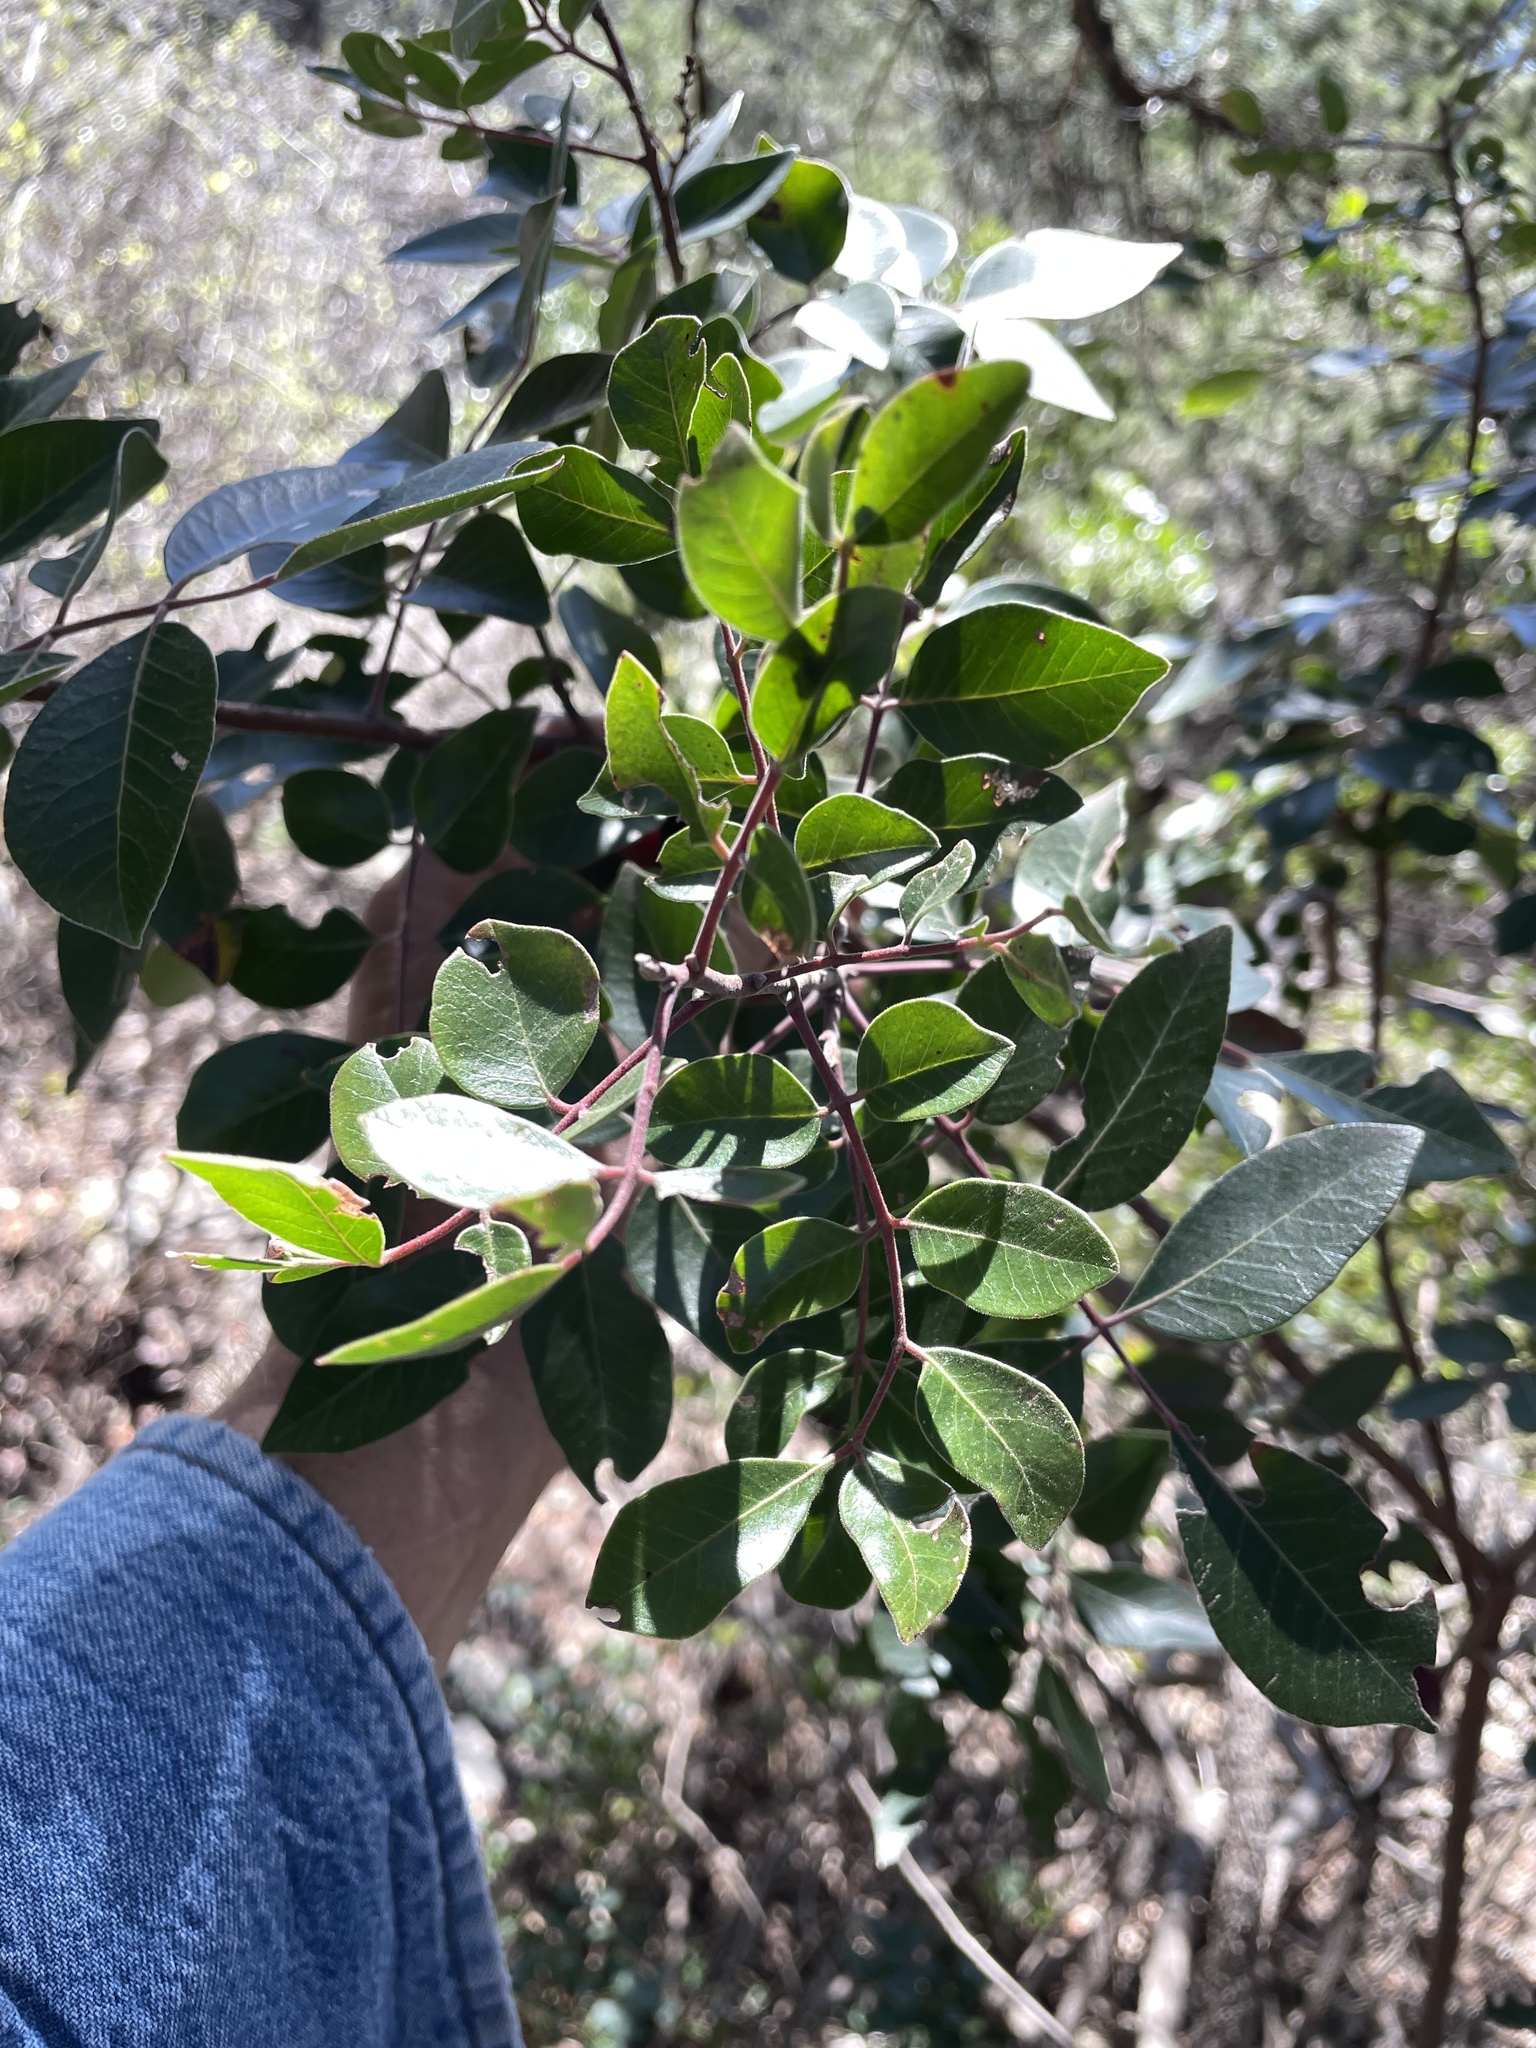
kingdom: Plantae
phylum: Tracheophyta
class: Magnoliopsida
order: Sapindales
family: Anacardiaceae
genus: Rhus
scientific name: Rhus virens
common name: Evergreen sumac
